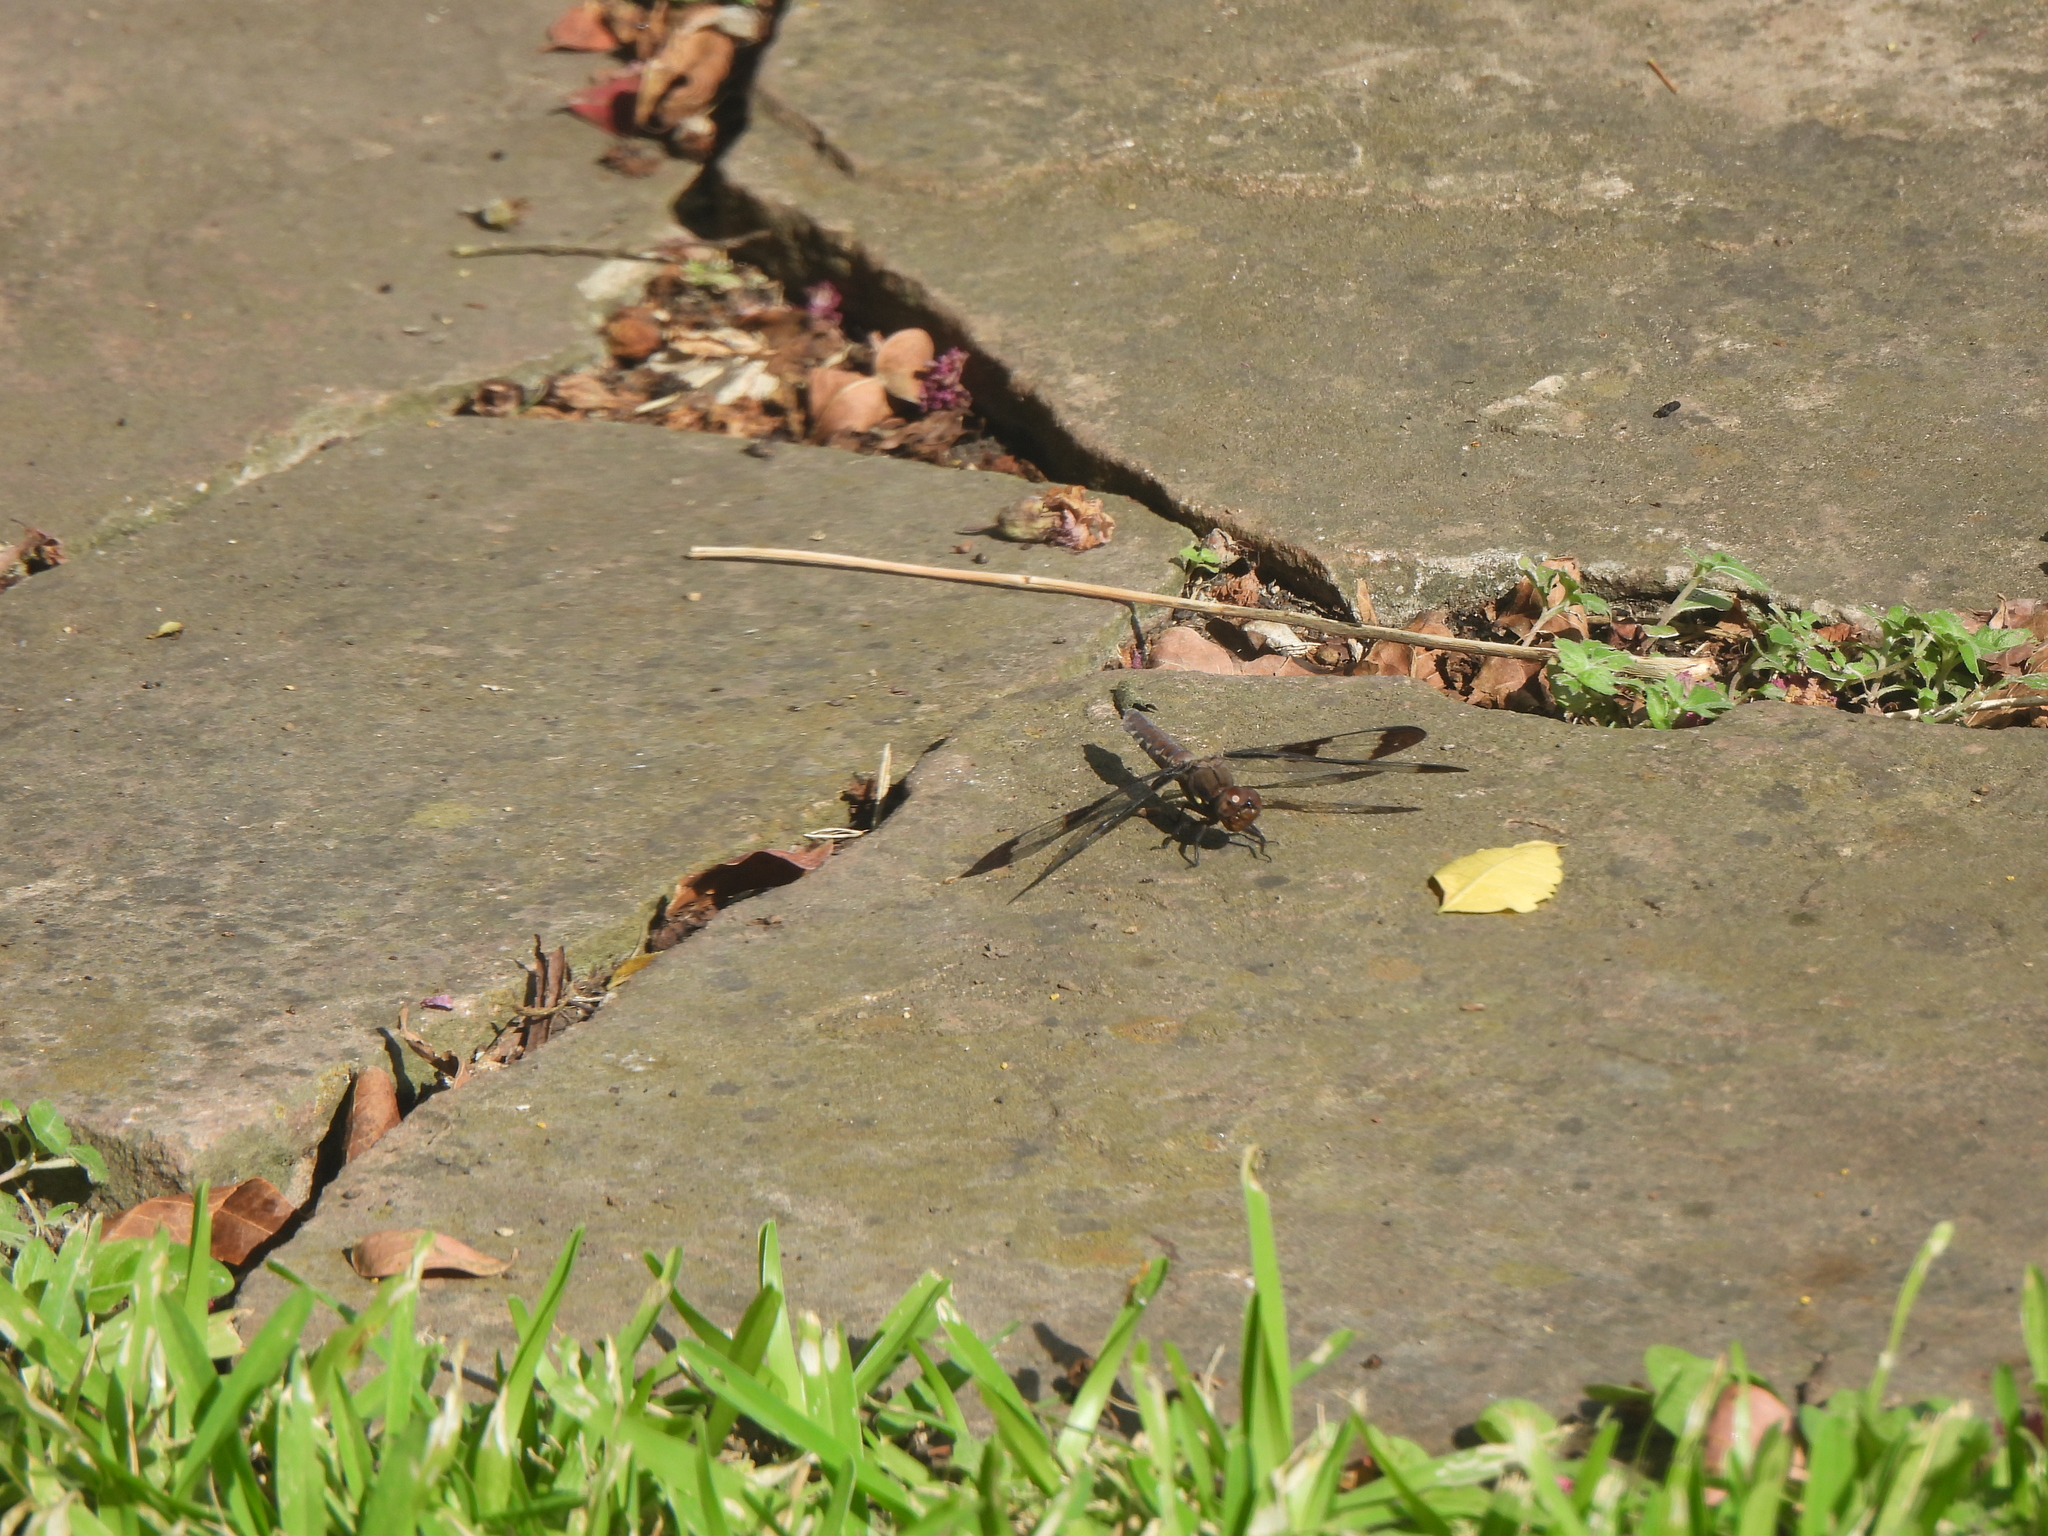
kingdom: Animalia
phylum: Arthropoda
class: Insecta
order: Odonata
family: Libellulidae
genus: Plathemis
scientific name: Plathemis lydia
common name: Common whitetail
